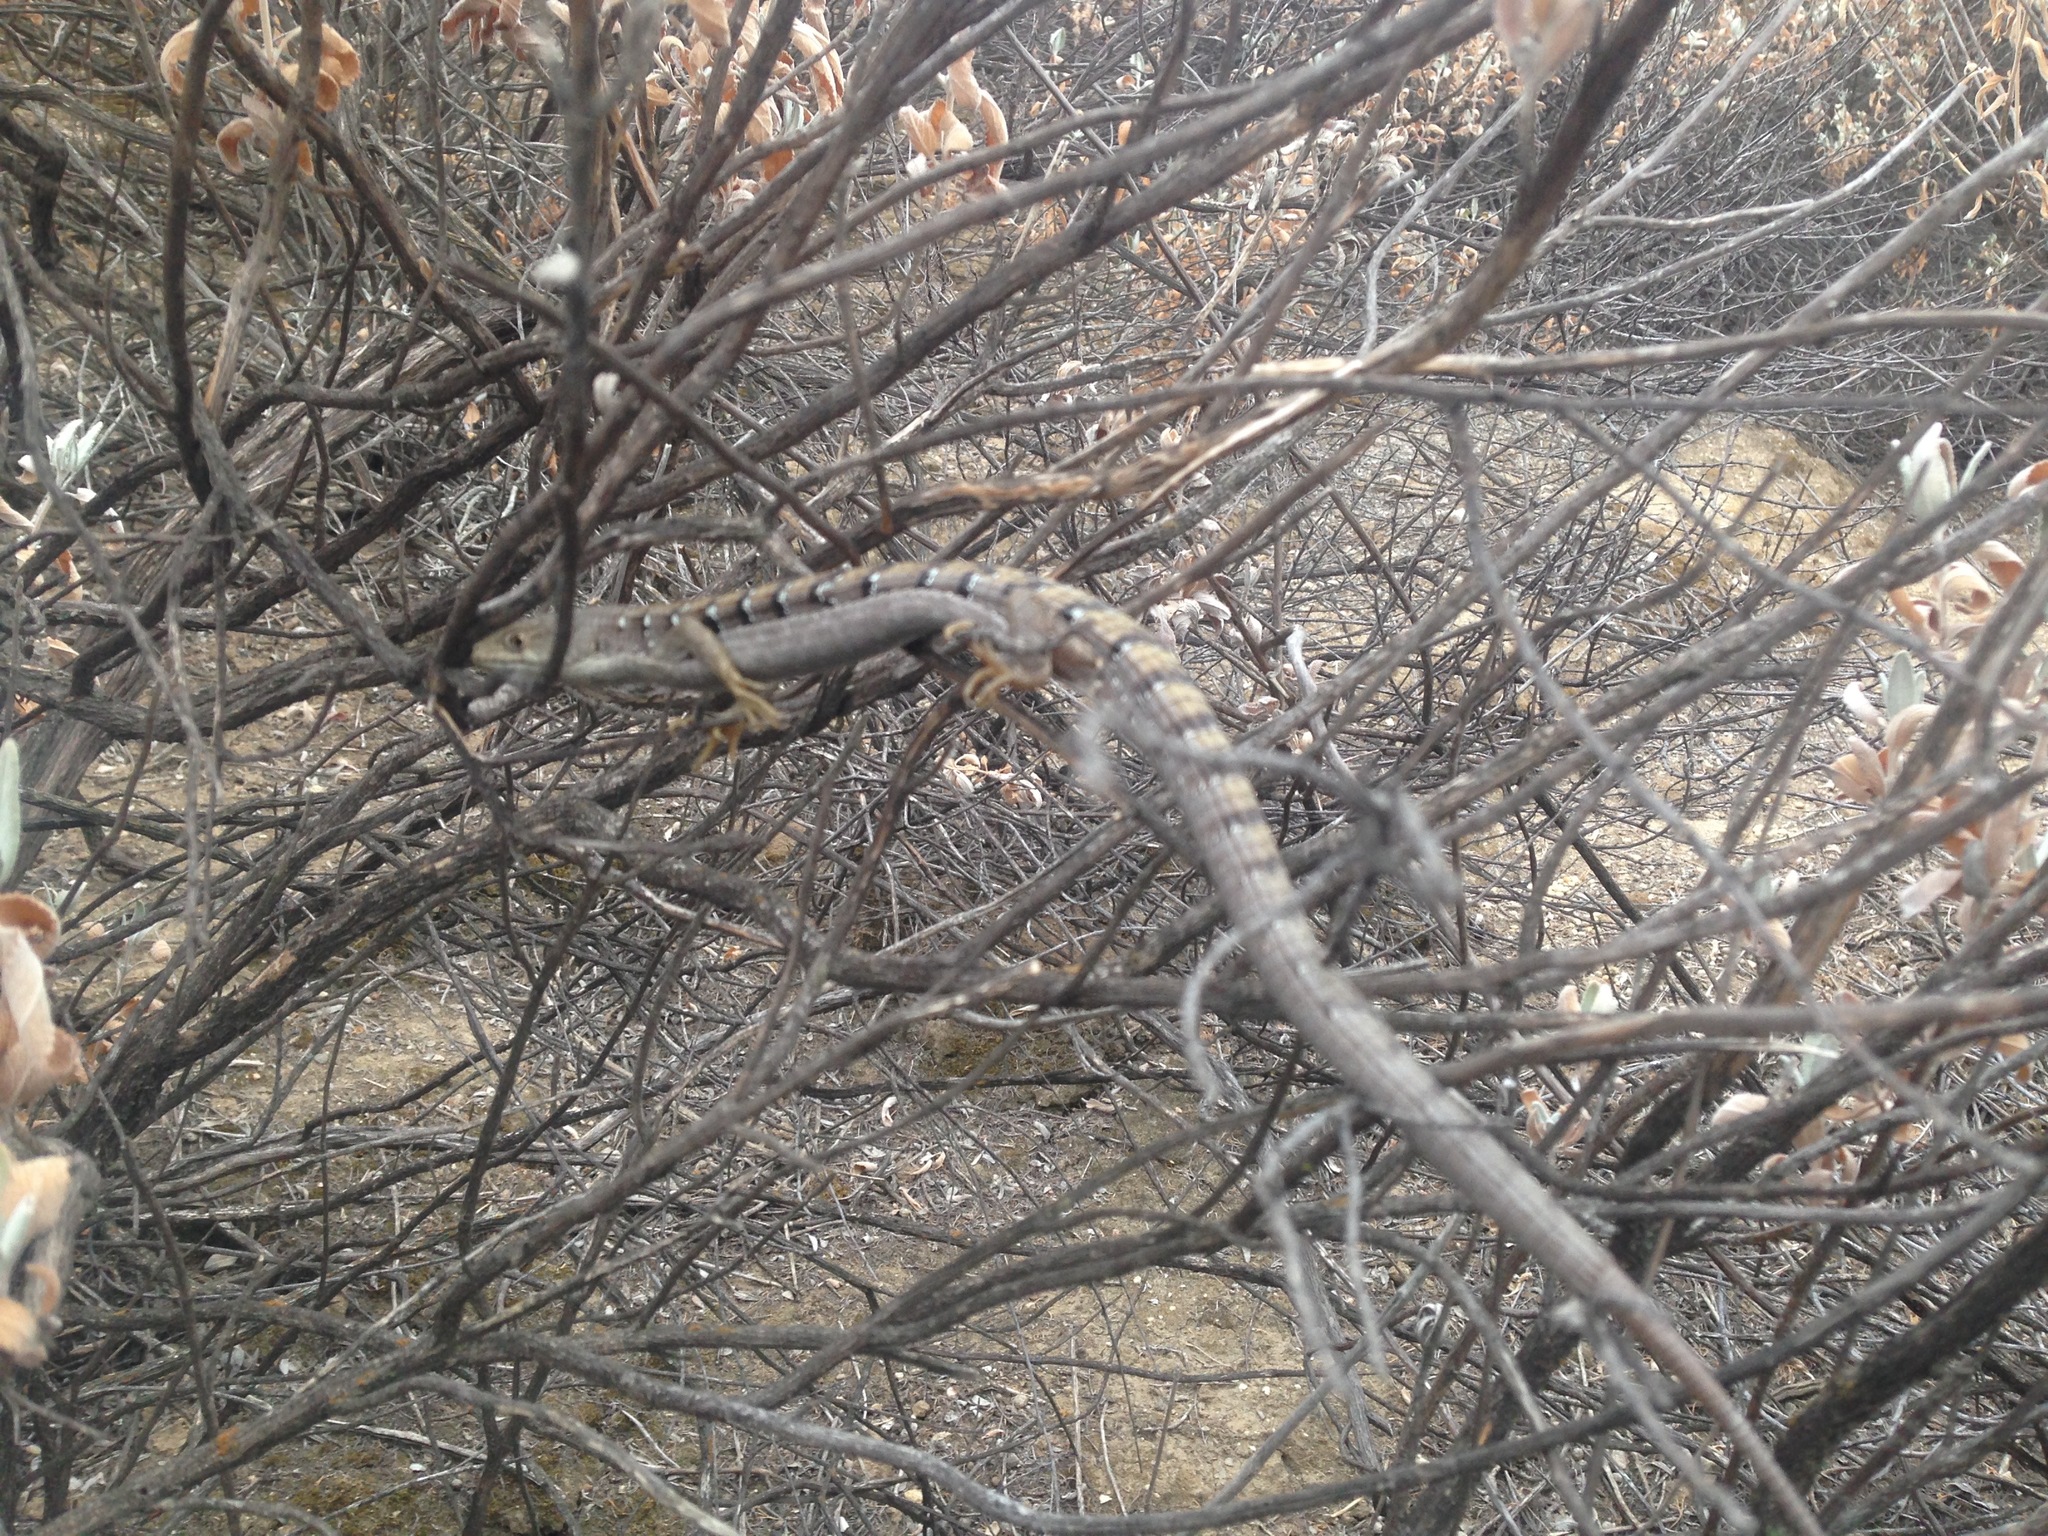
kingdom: Animalia
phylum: Chordata
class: Squamata
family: Anguidae
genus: Elgaria
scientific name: Elgaria multicarinata
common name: Southern alligator lizard
